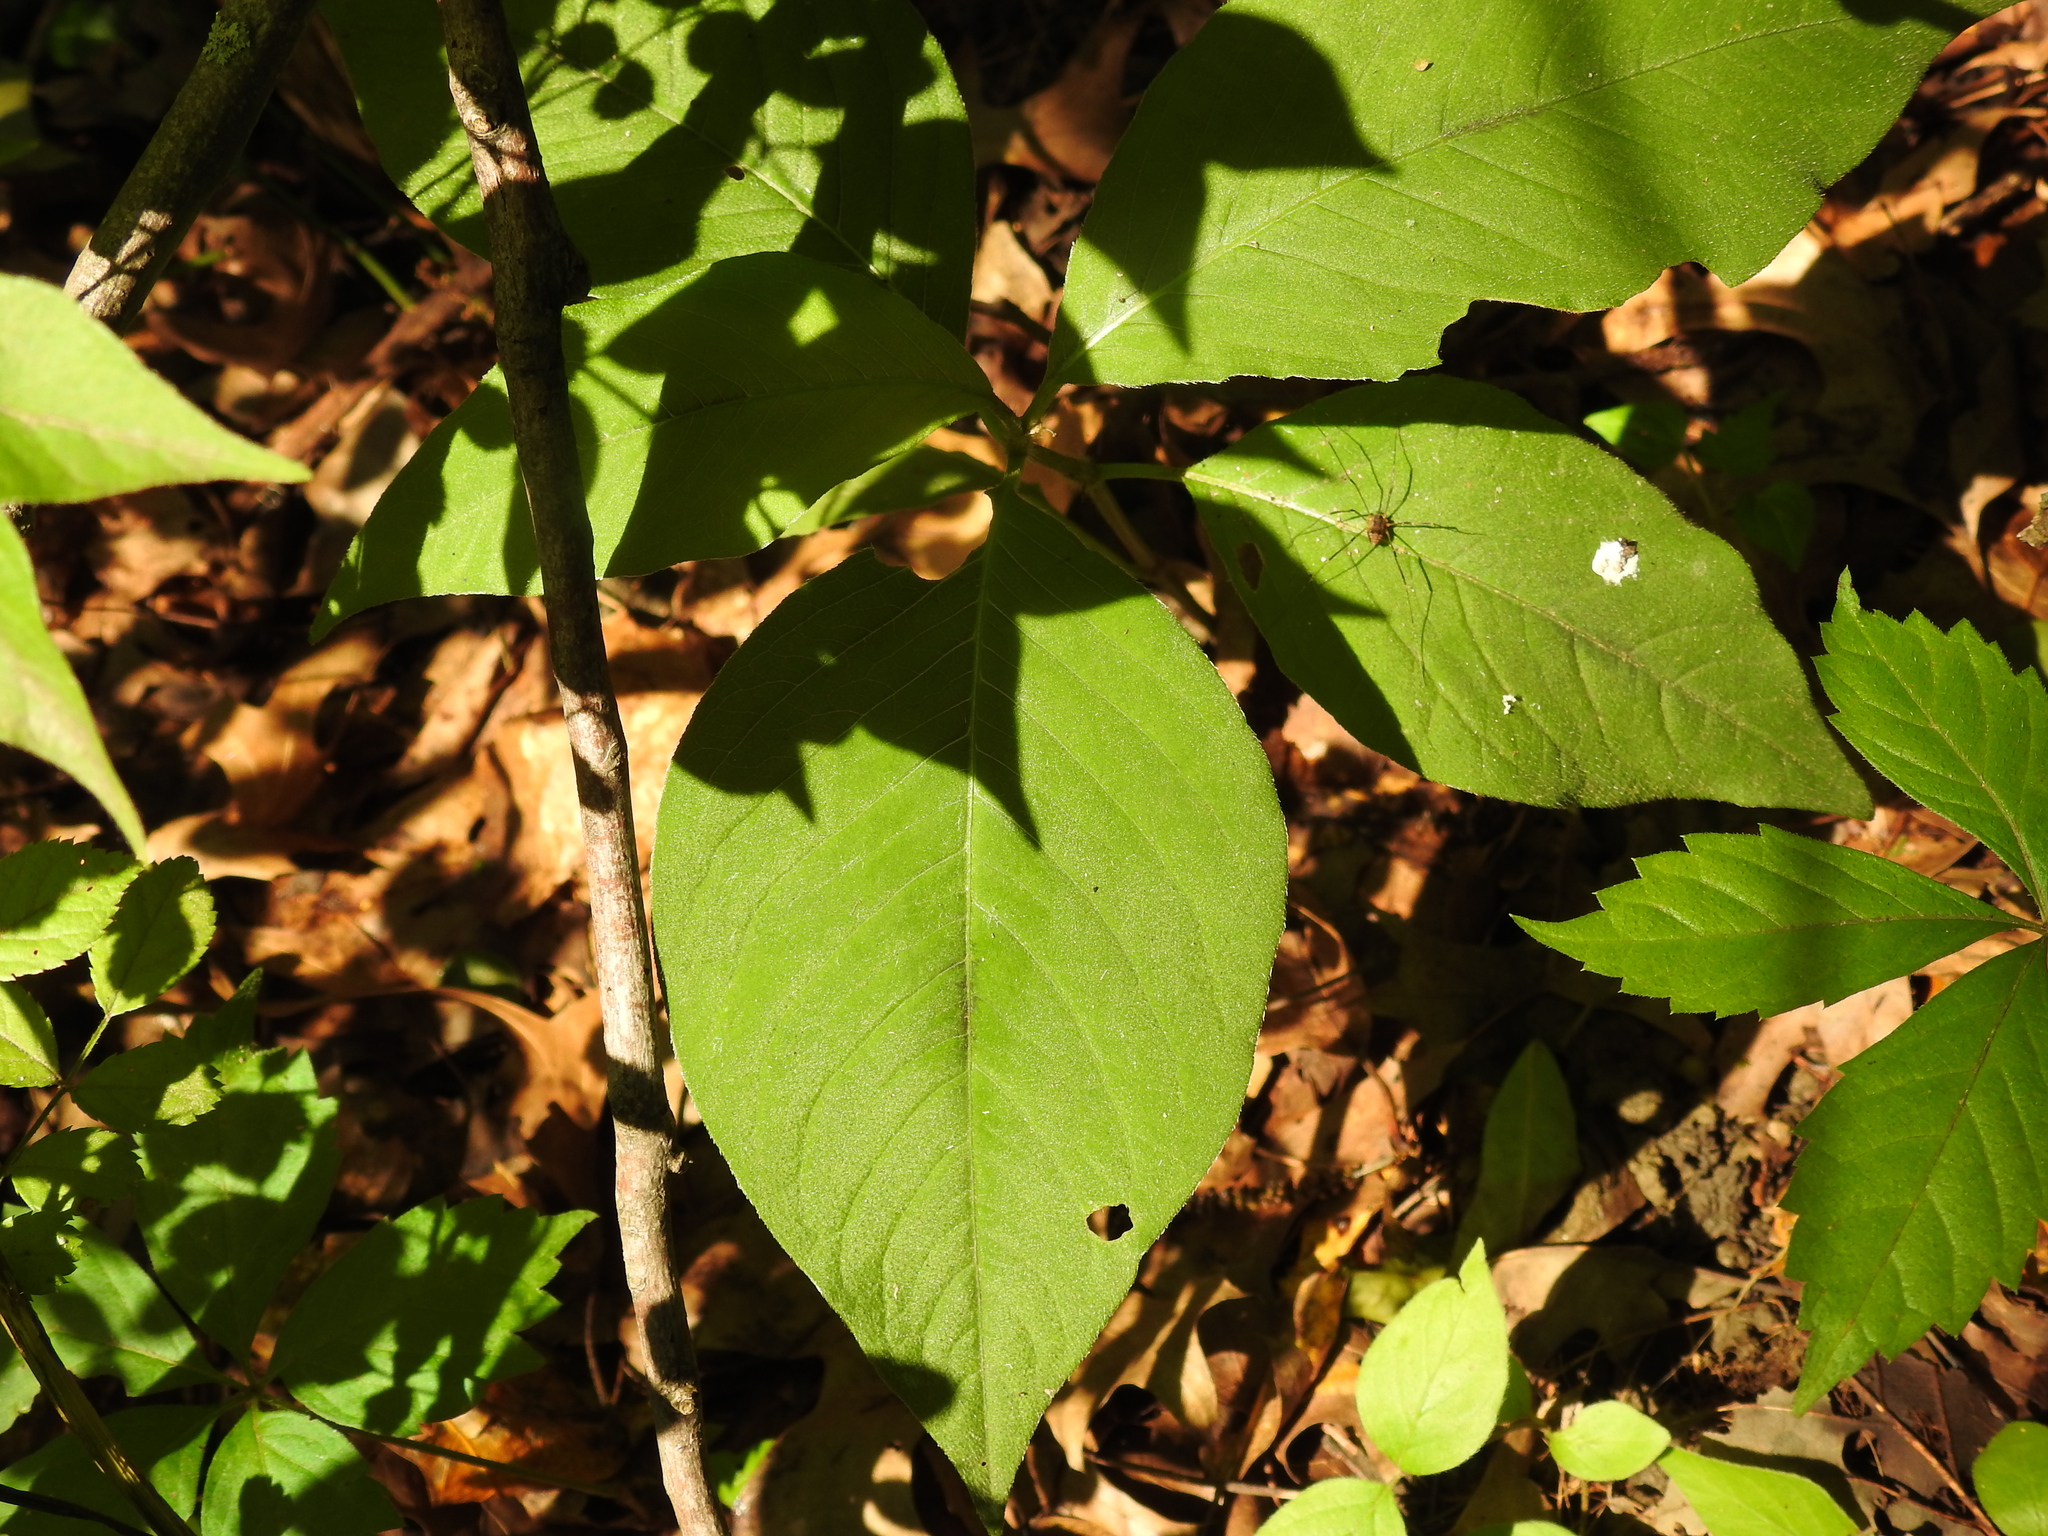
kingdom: Plantae
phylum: Tracheophyta
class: Magnoliopsida
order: Caryophyllales
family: Polygonaceae
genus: Persicaria
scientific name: Persicaria virginiana
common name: Jumpseed
